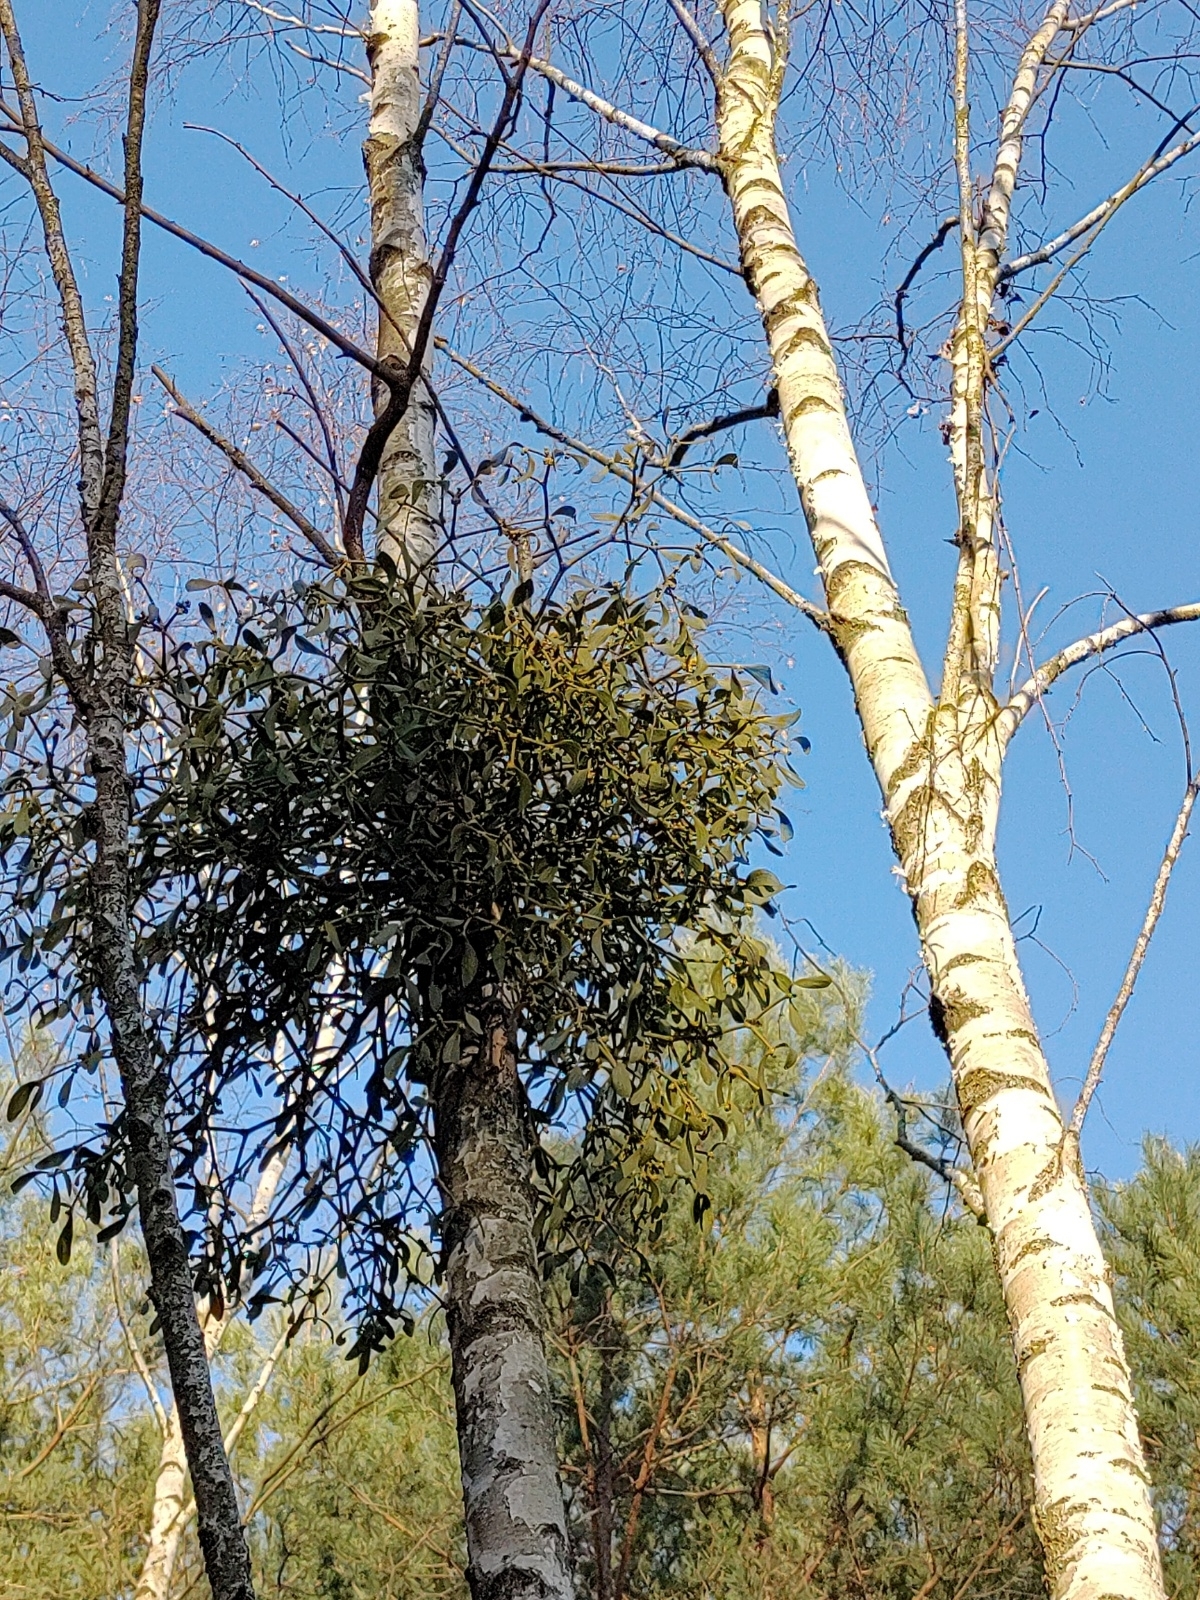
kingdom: Plantae
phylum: Tracheophyta
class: Magnoliopsida
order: Santalales
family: Viscaceae
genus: Viscum
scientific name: Viscum album
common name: Mistletoe
